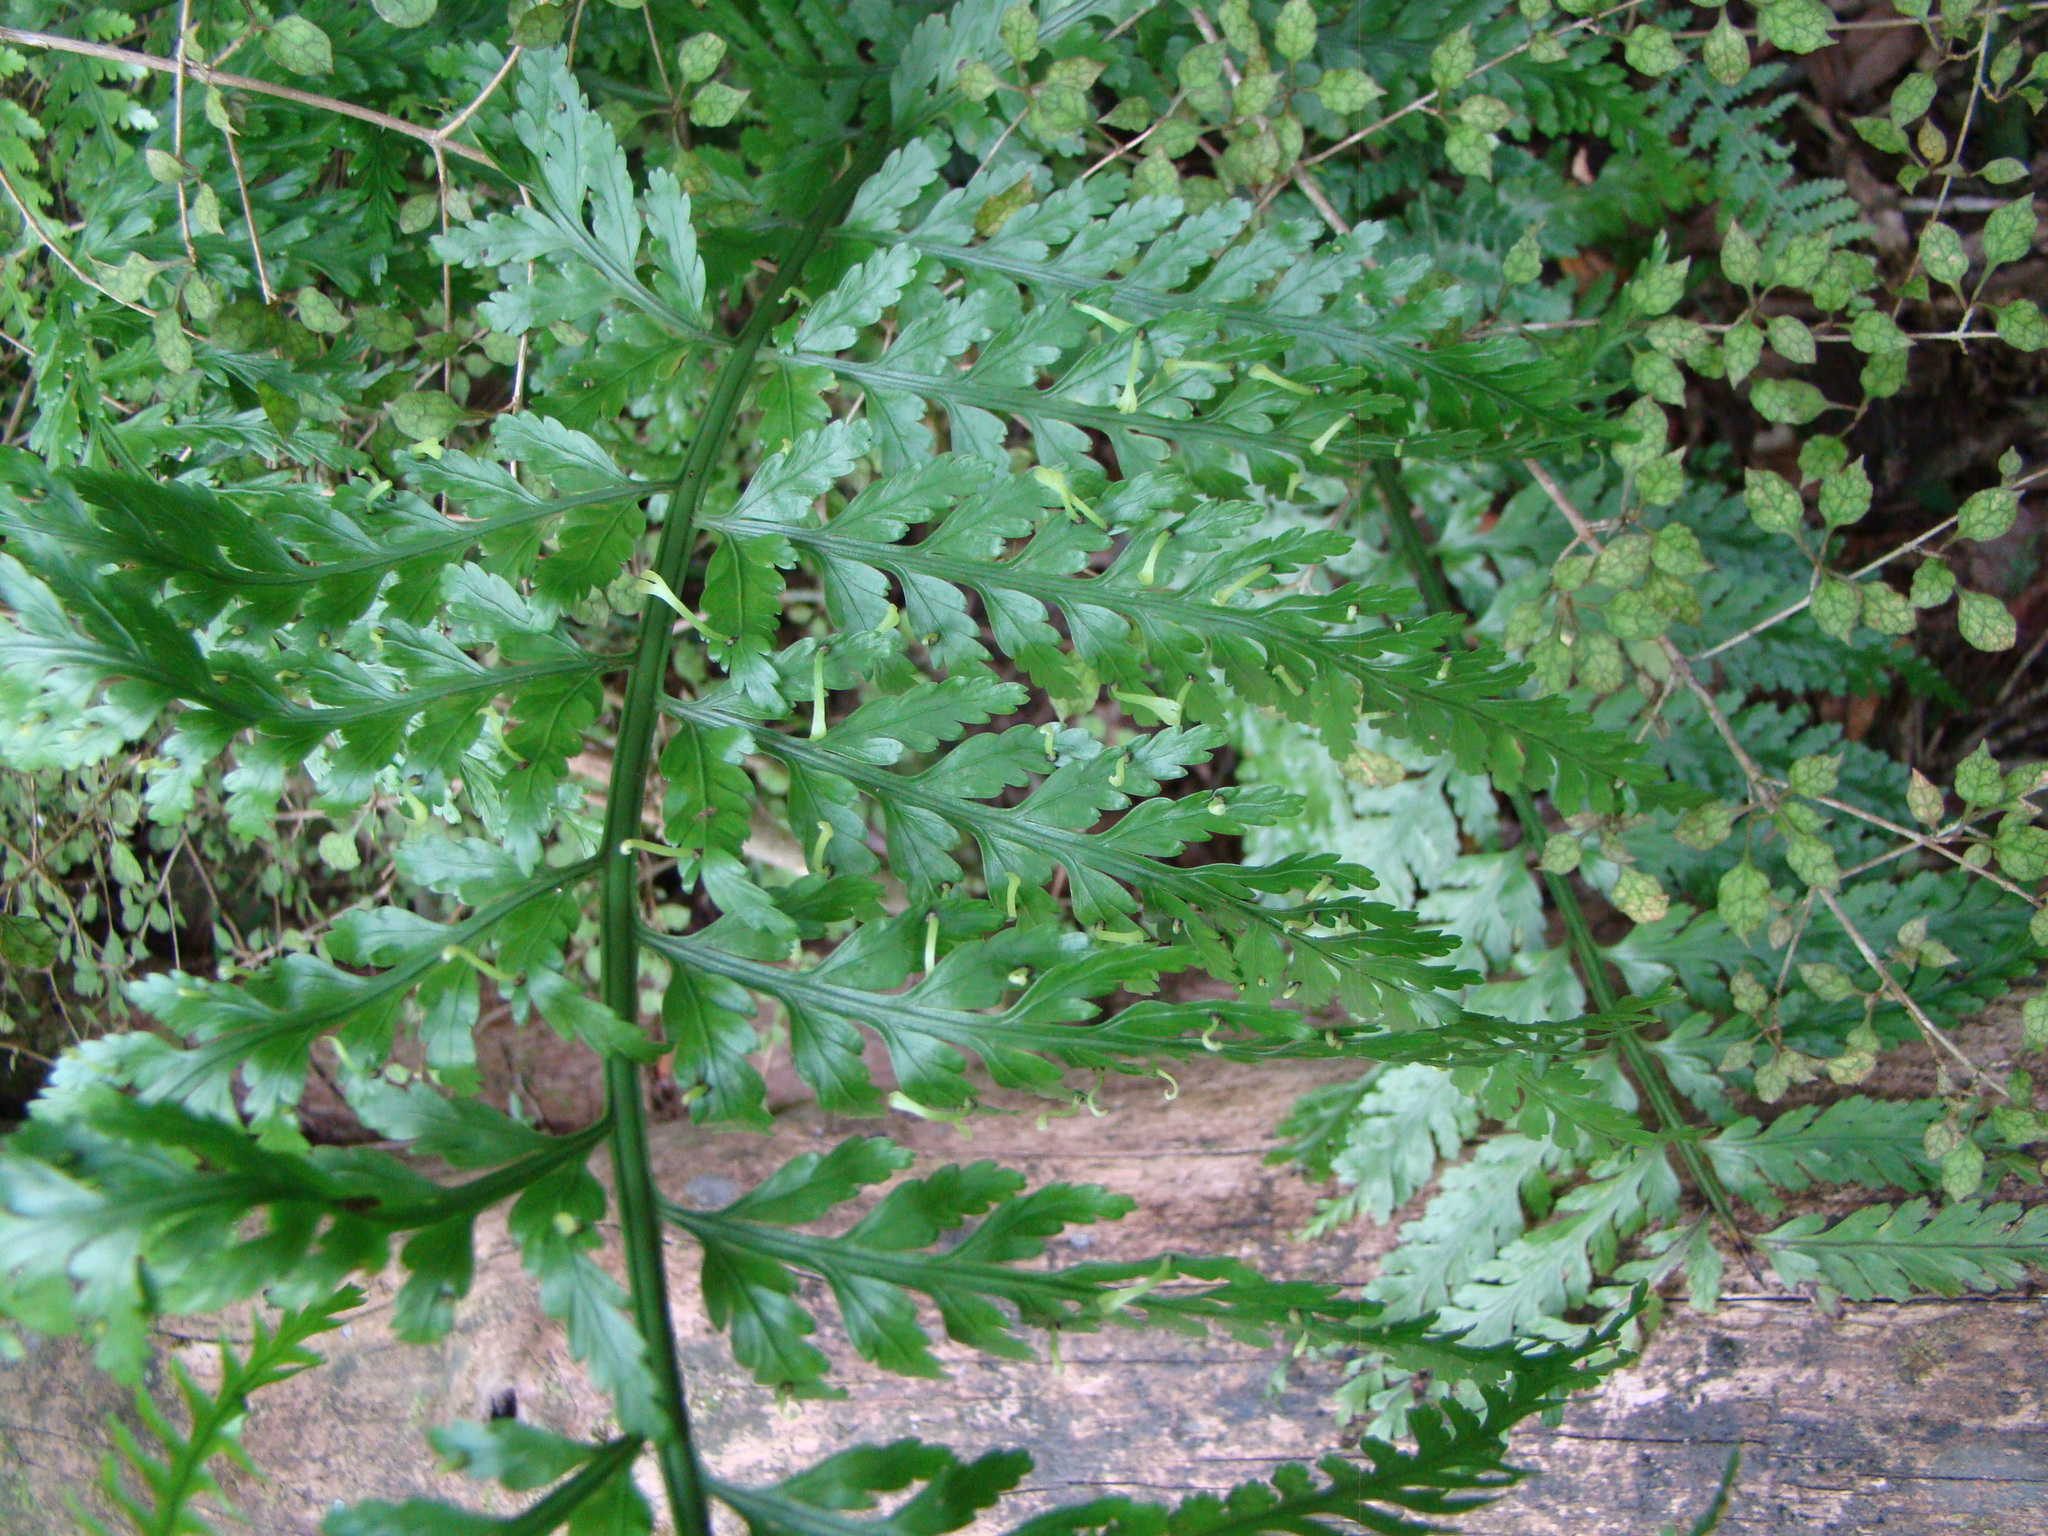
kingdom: Plantae
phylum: Tracheophyta
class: Polypodiopsida
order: Polypodiales
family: Aspleniaceae
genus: Asplenium
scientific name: Asplenium bulbiferum
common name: Mother fern
